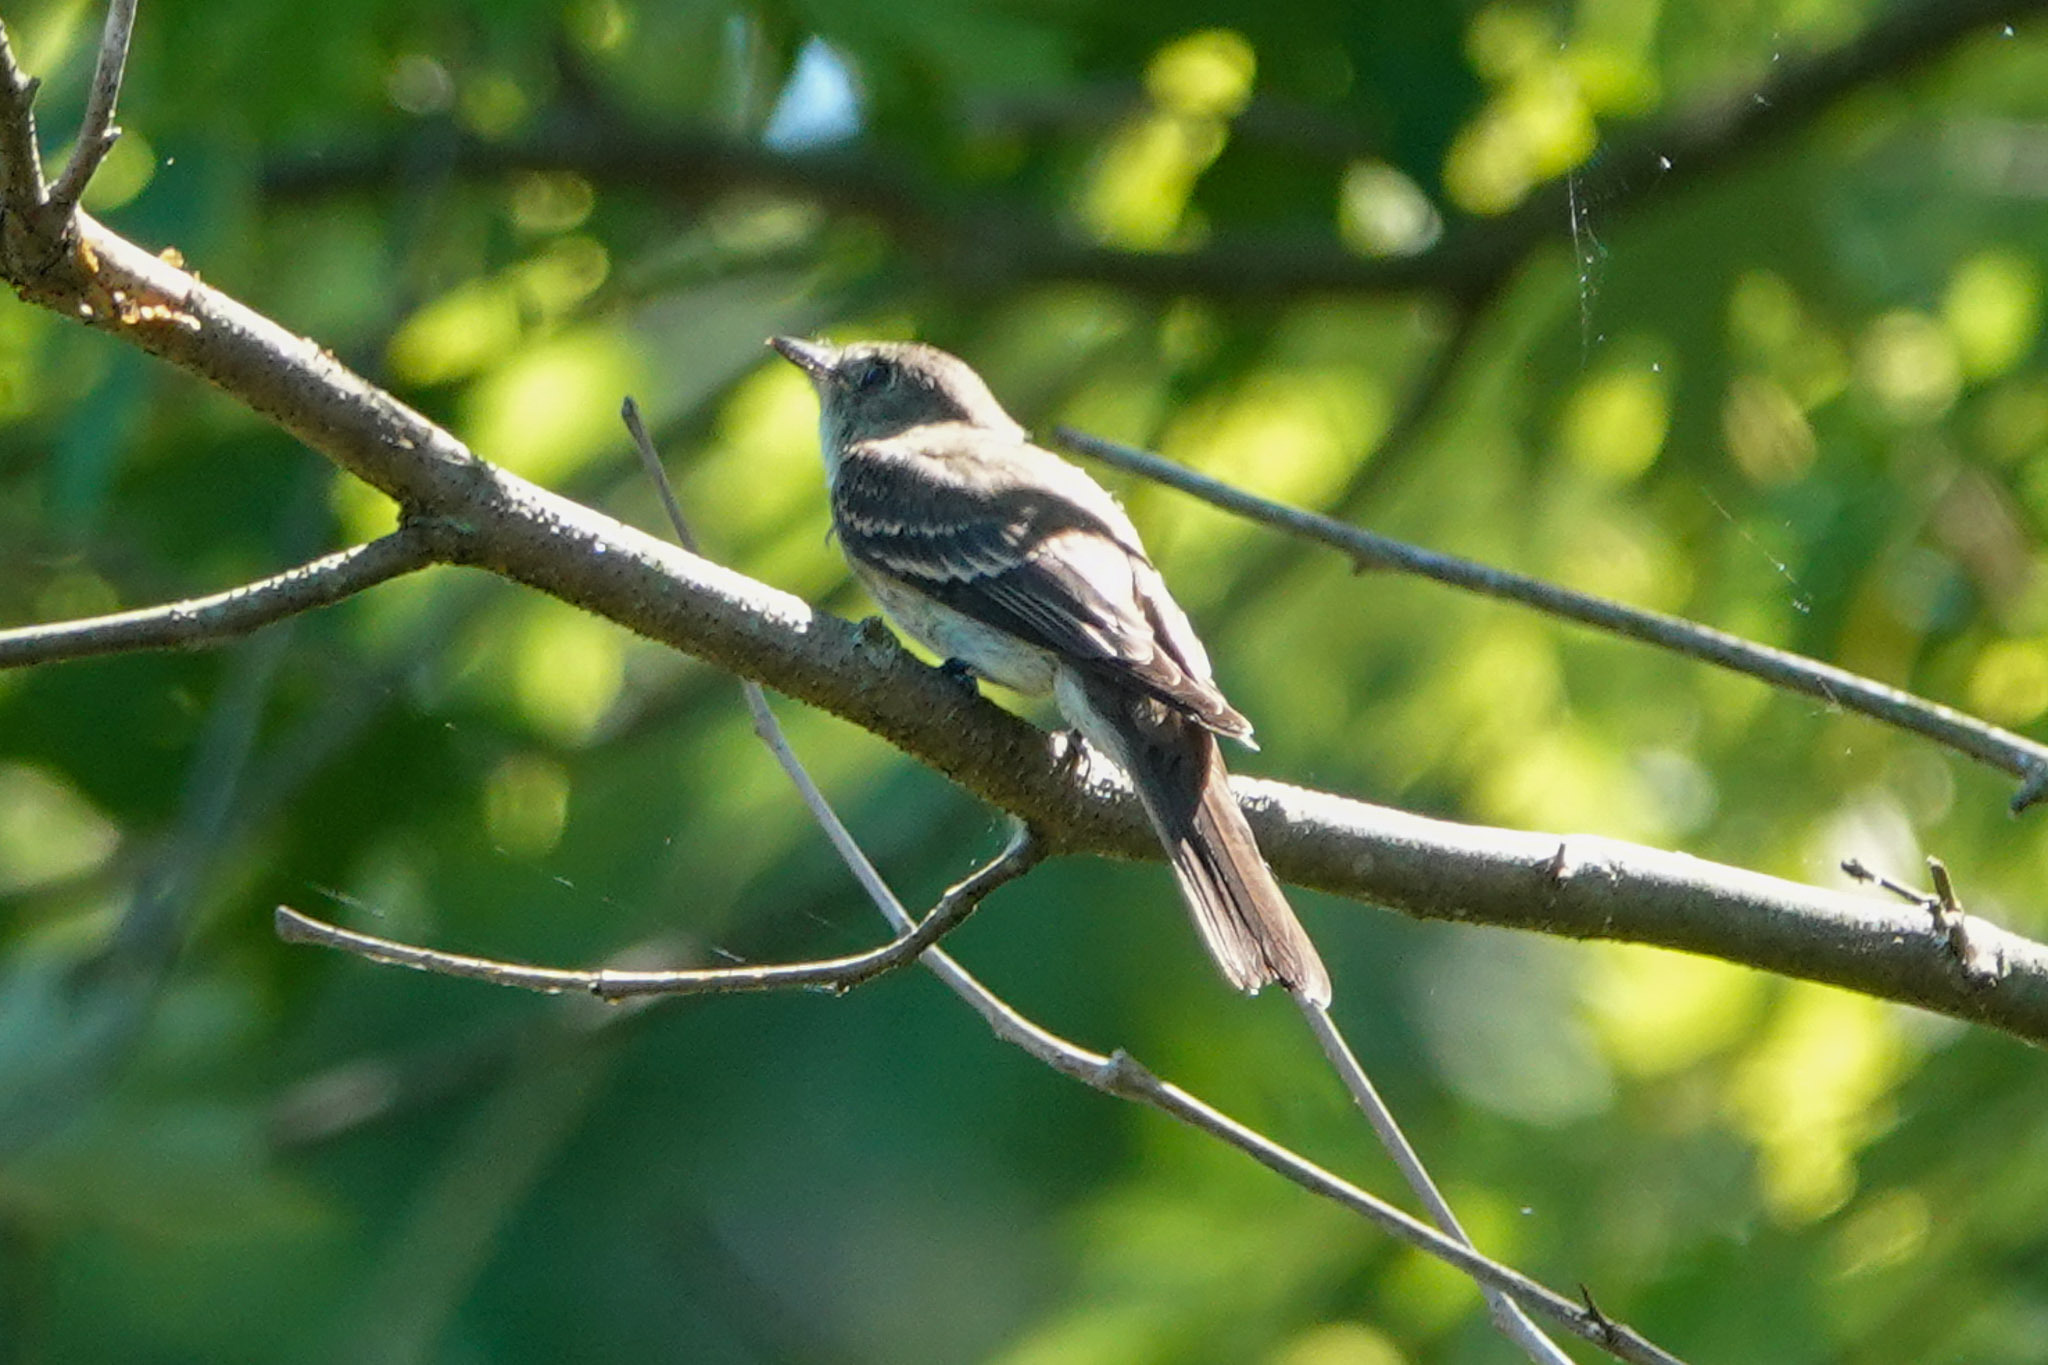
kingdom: Animalia
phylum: Chordata
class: Aves
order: Passeriformes
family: Tyrannidae
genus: Contopus
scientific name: Contopus virens
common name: Eastern wood-pewee
